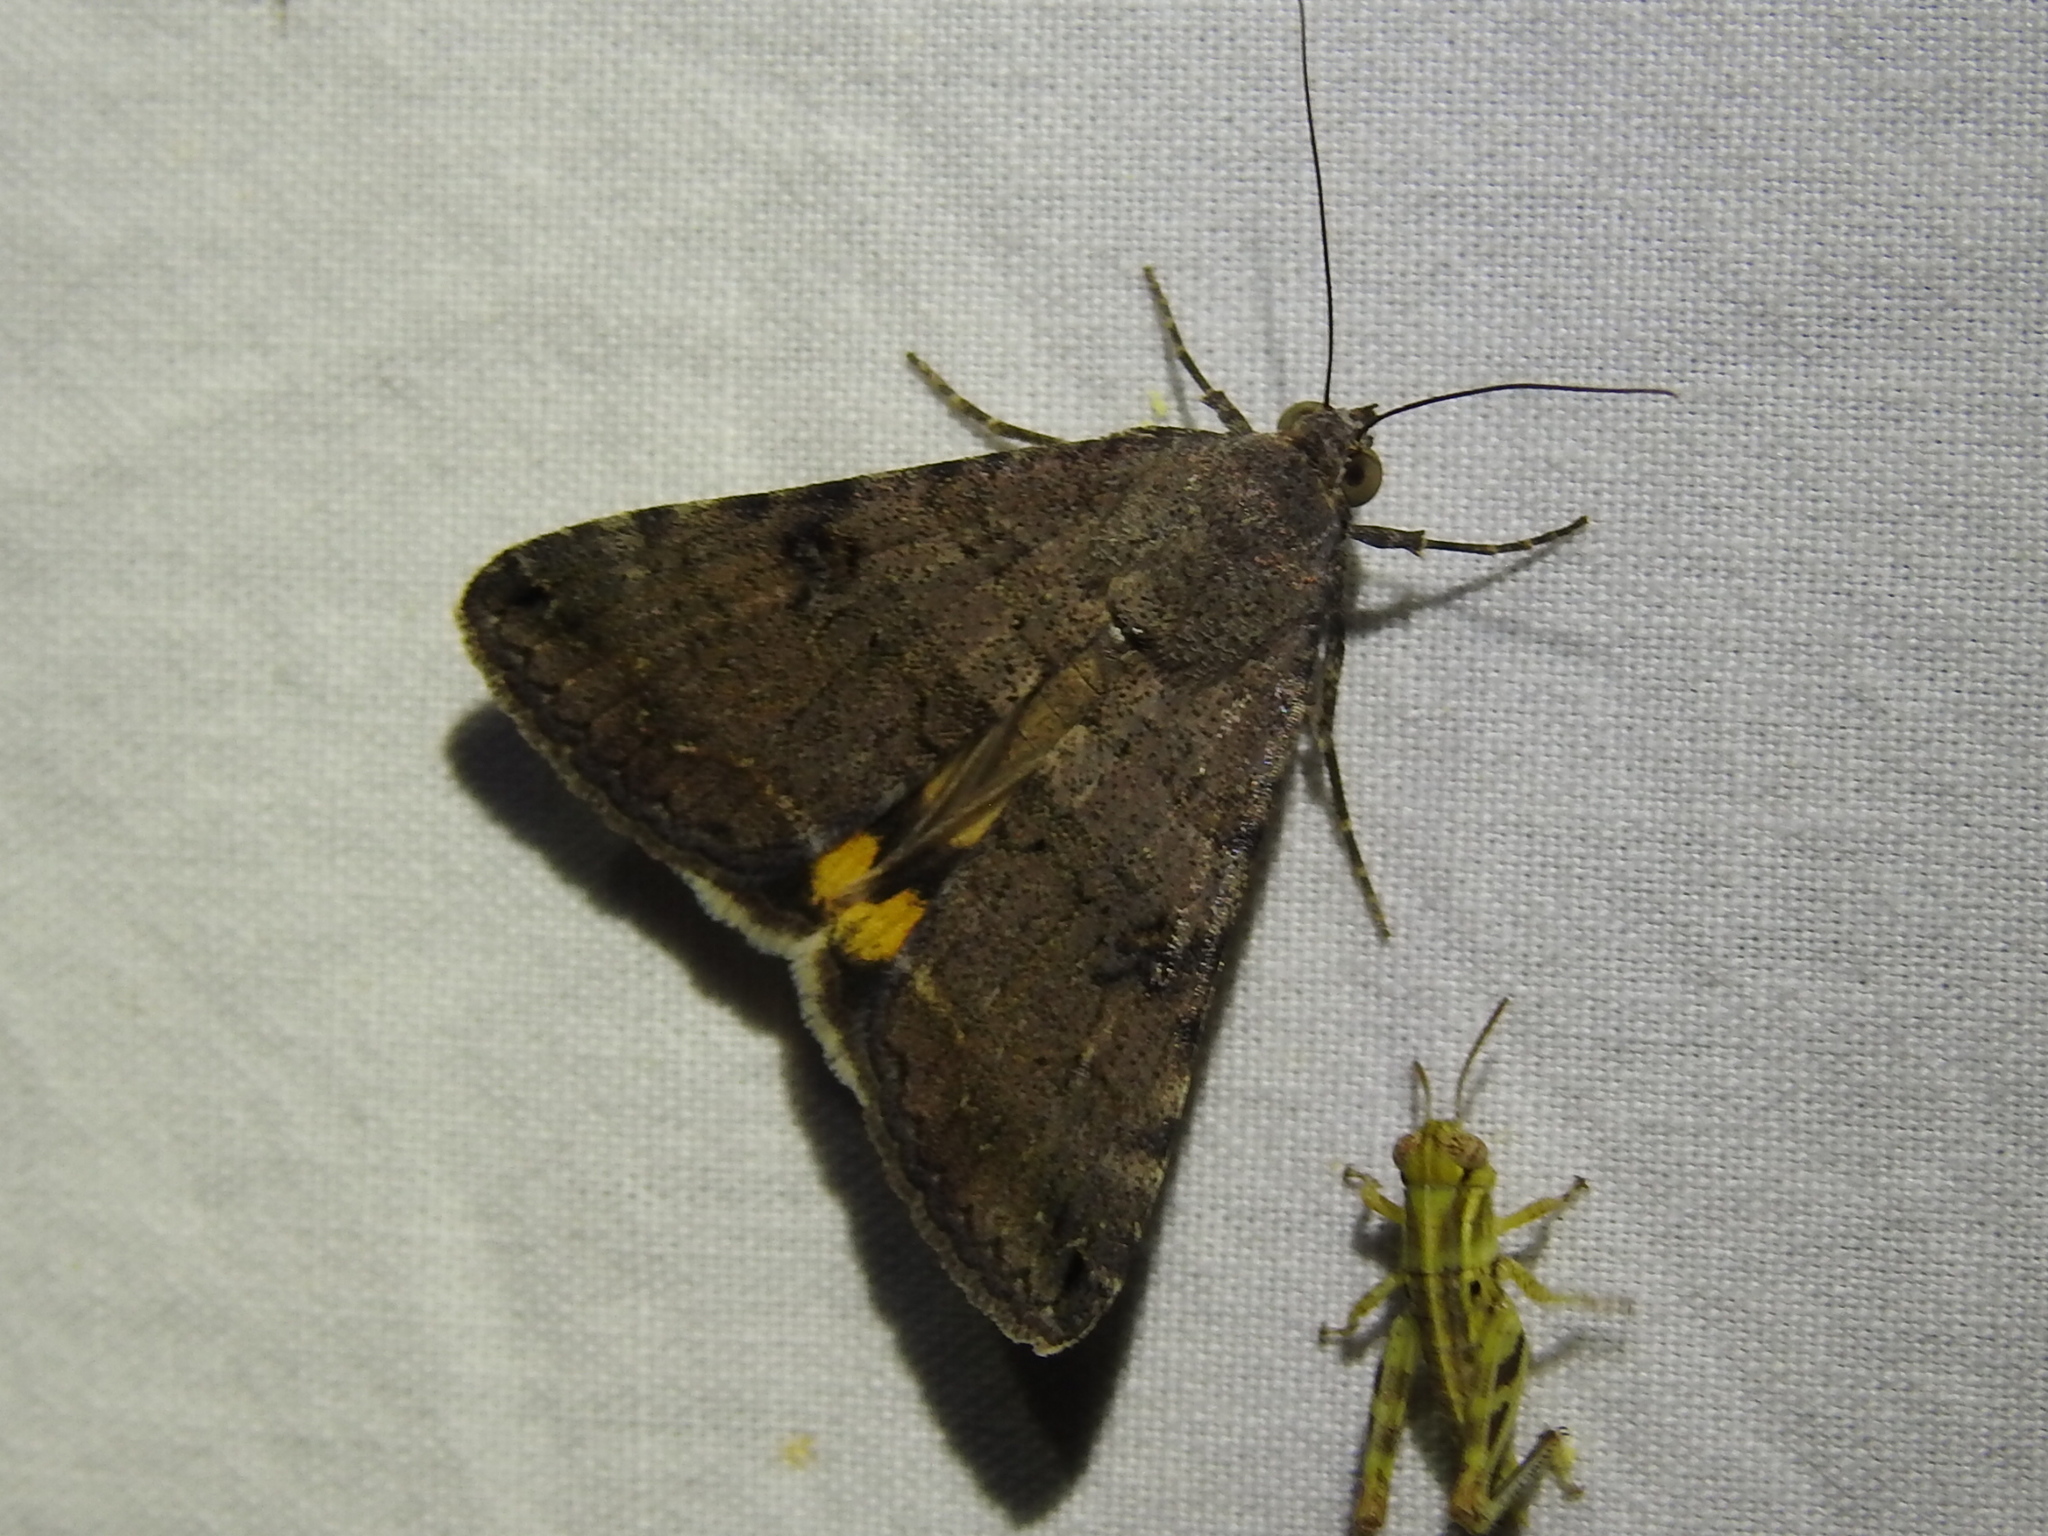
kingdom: Animalia
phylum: Arthropoda
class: Insecta
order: Lepidoptera
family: Erebidae
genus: Bulia
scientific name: Bulia deducta
